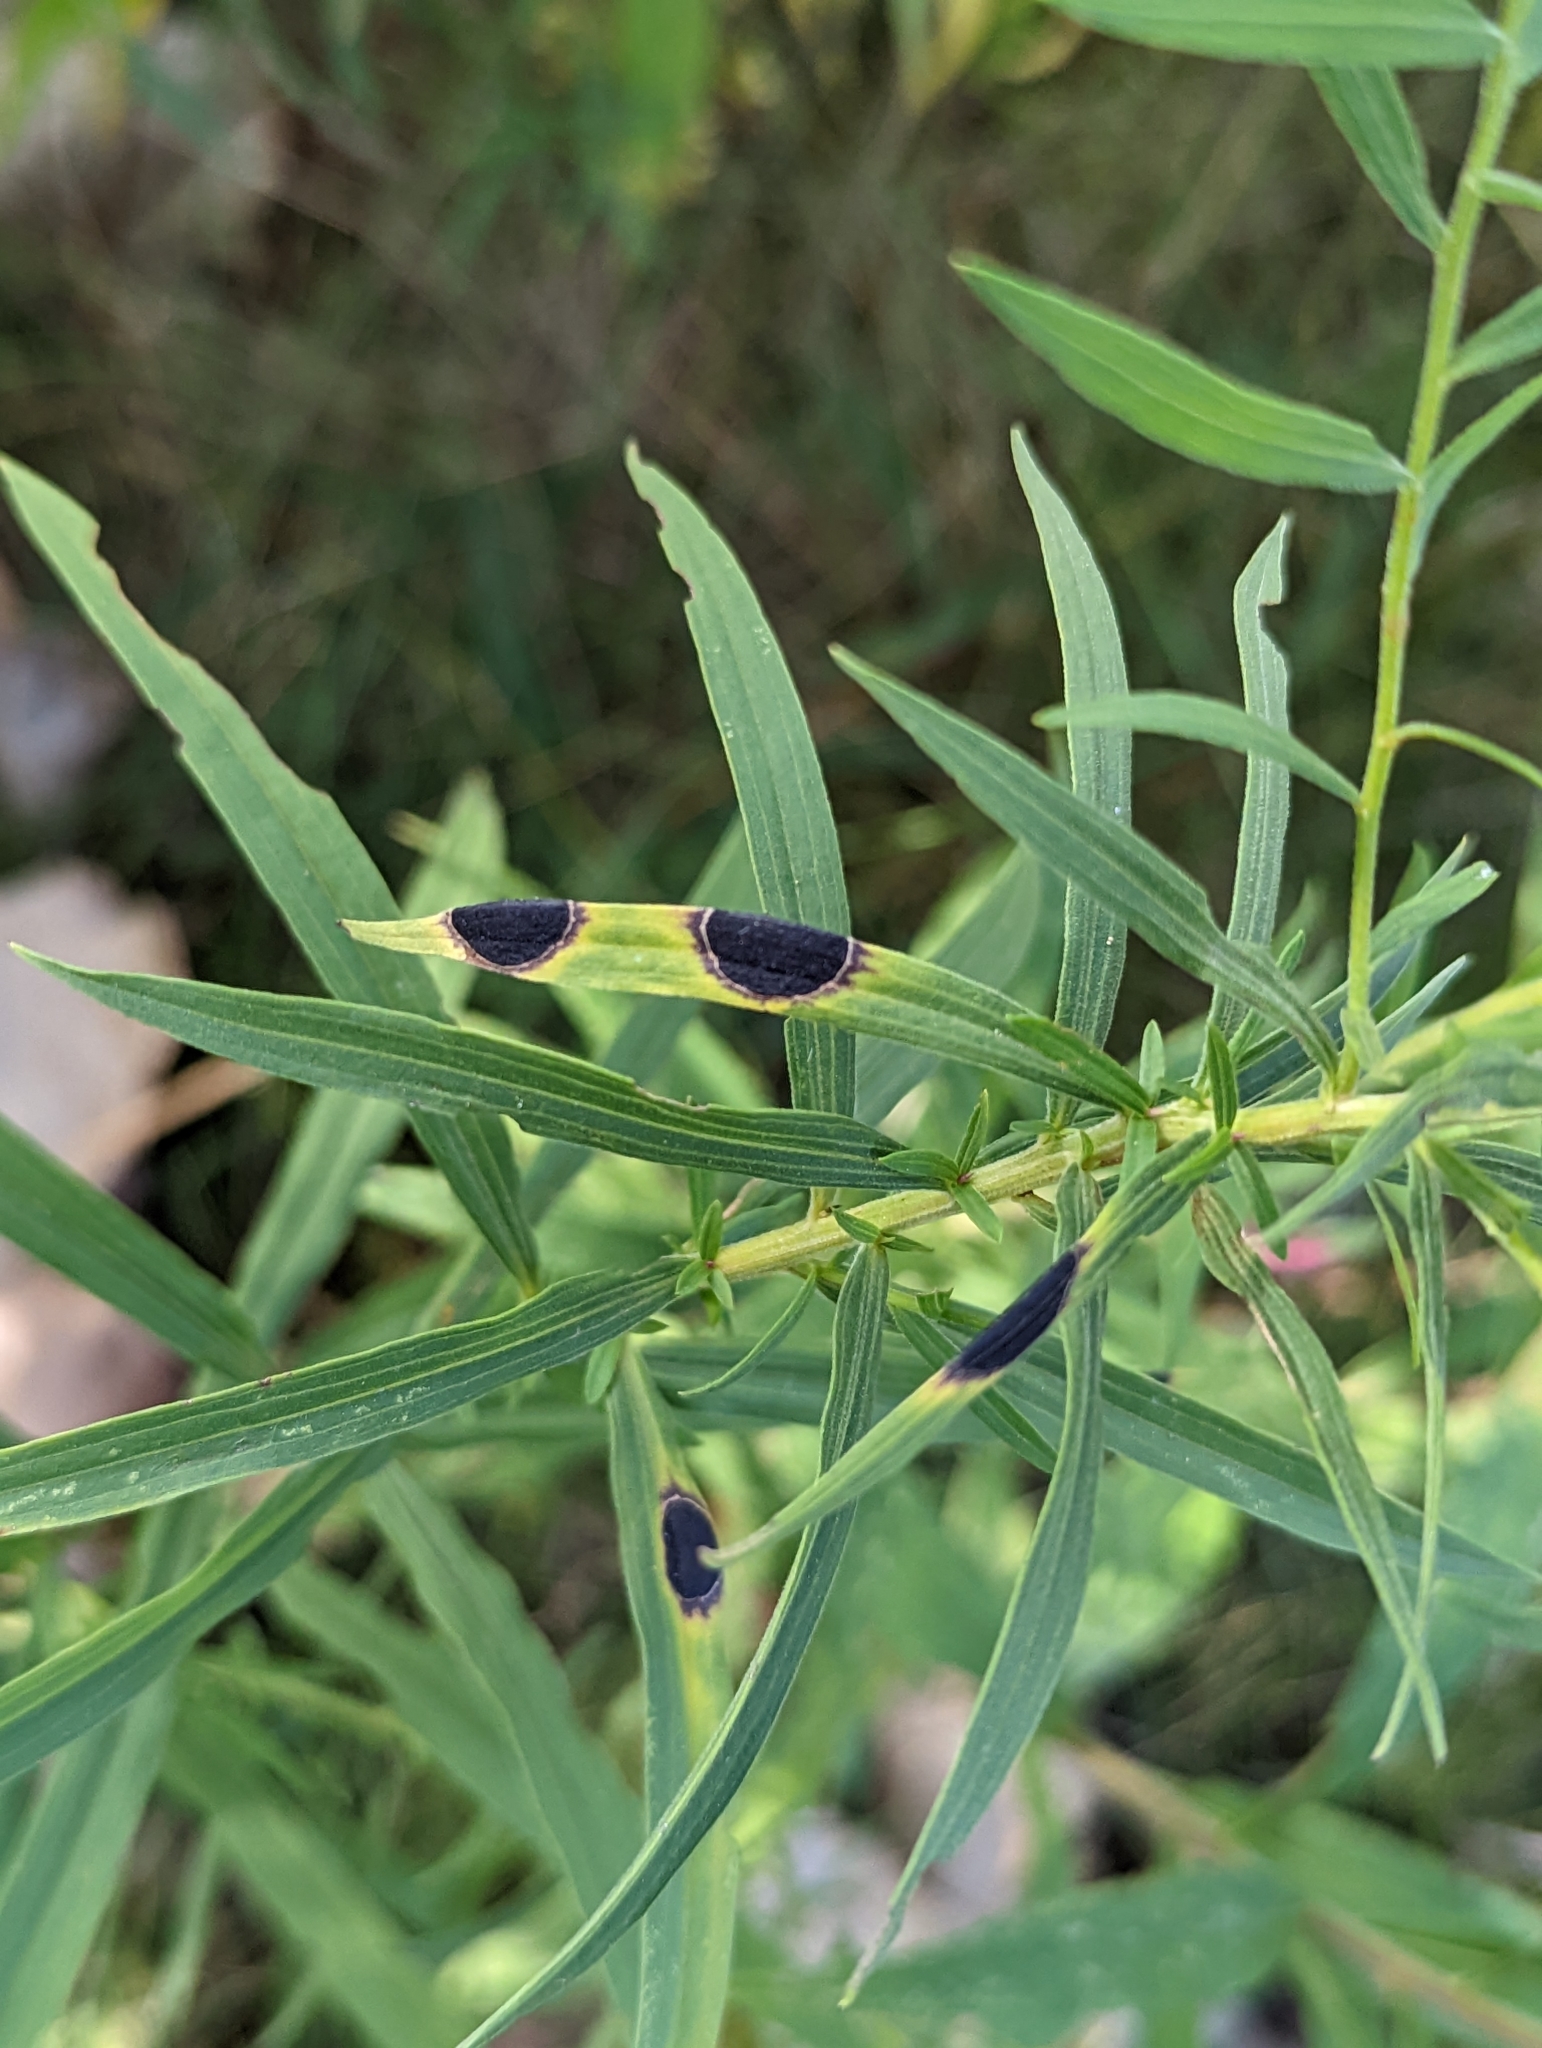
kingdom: Animalia
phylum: Arthropoda
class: Insecta
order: Diptera
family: Cecidomyiidae
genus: Asteromyia
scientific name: Asteromyia euthamiae
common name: Euthamia leaf gall midge
